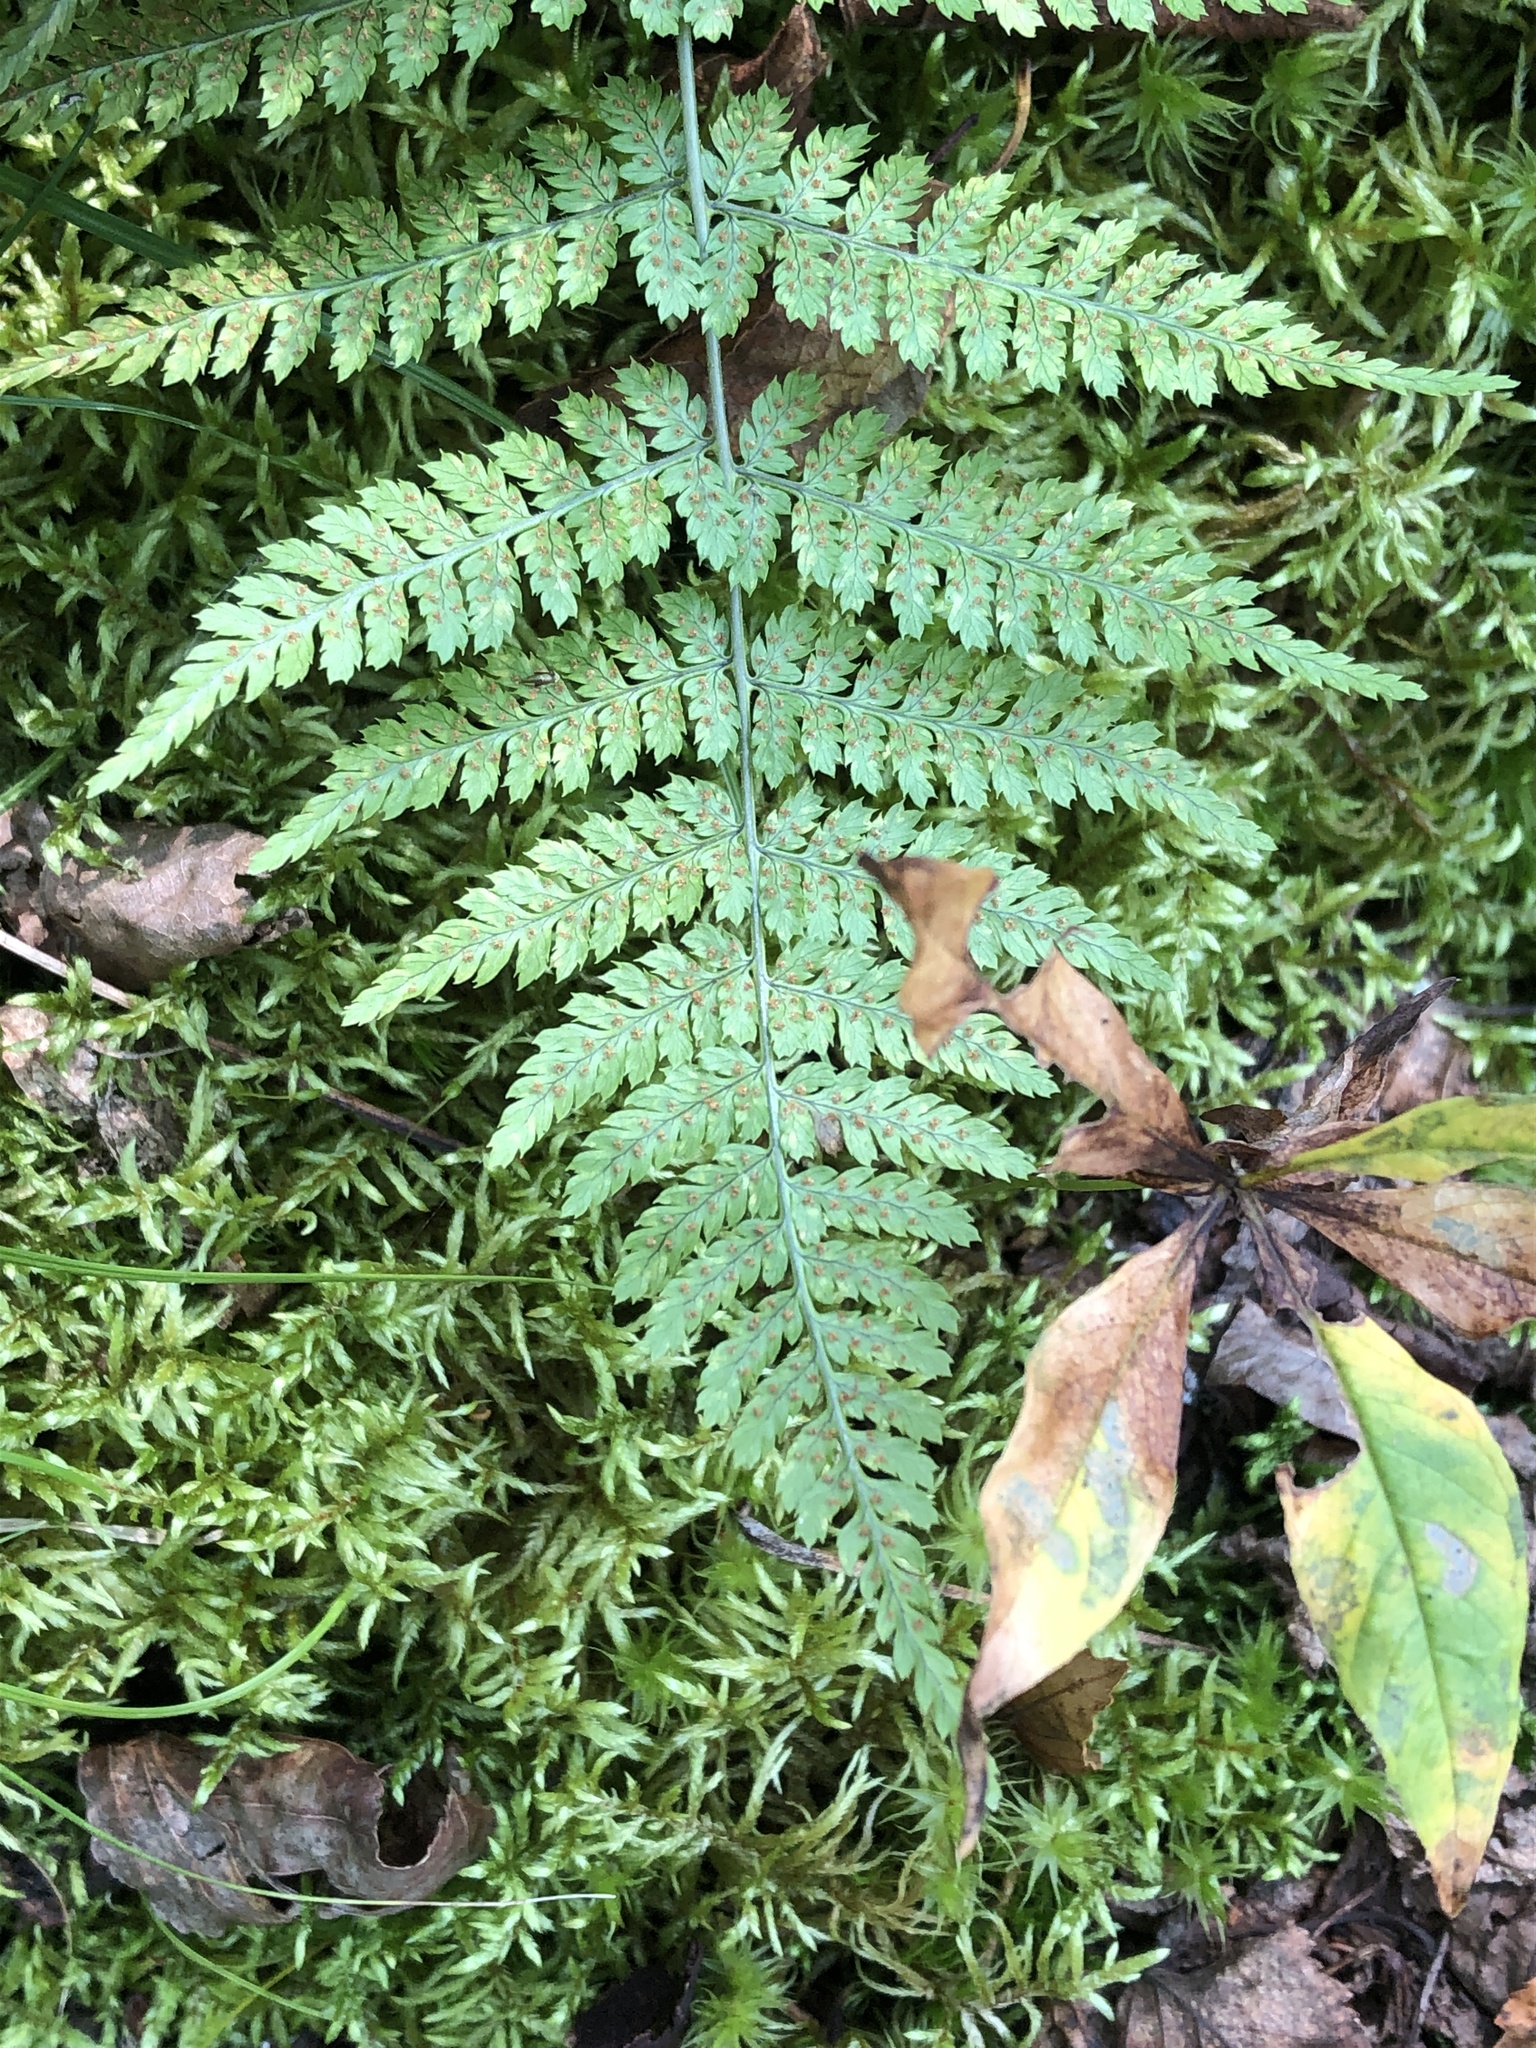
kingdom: Plantae
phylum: Tracheophyta
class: Polypodiopsida
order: Polypodiales
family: Dryopteridaceae
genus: Dryopteris
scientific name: Dryopteris intermedia
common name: Evergreen wood fern
